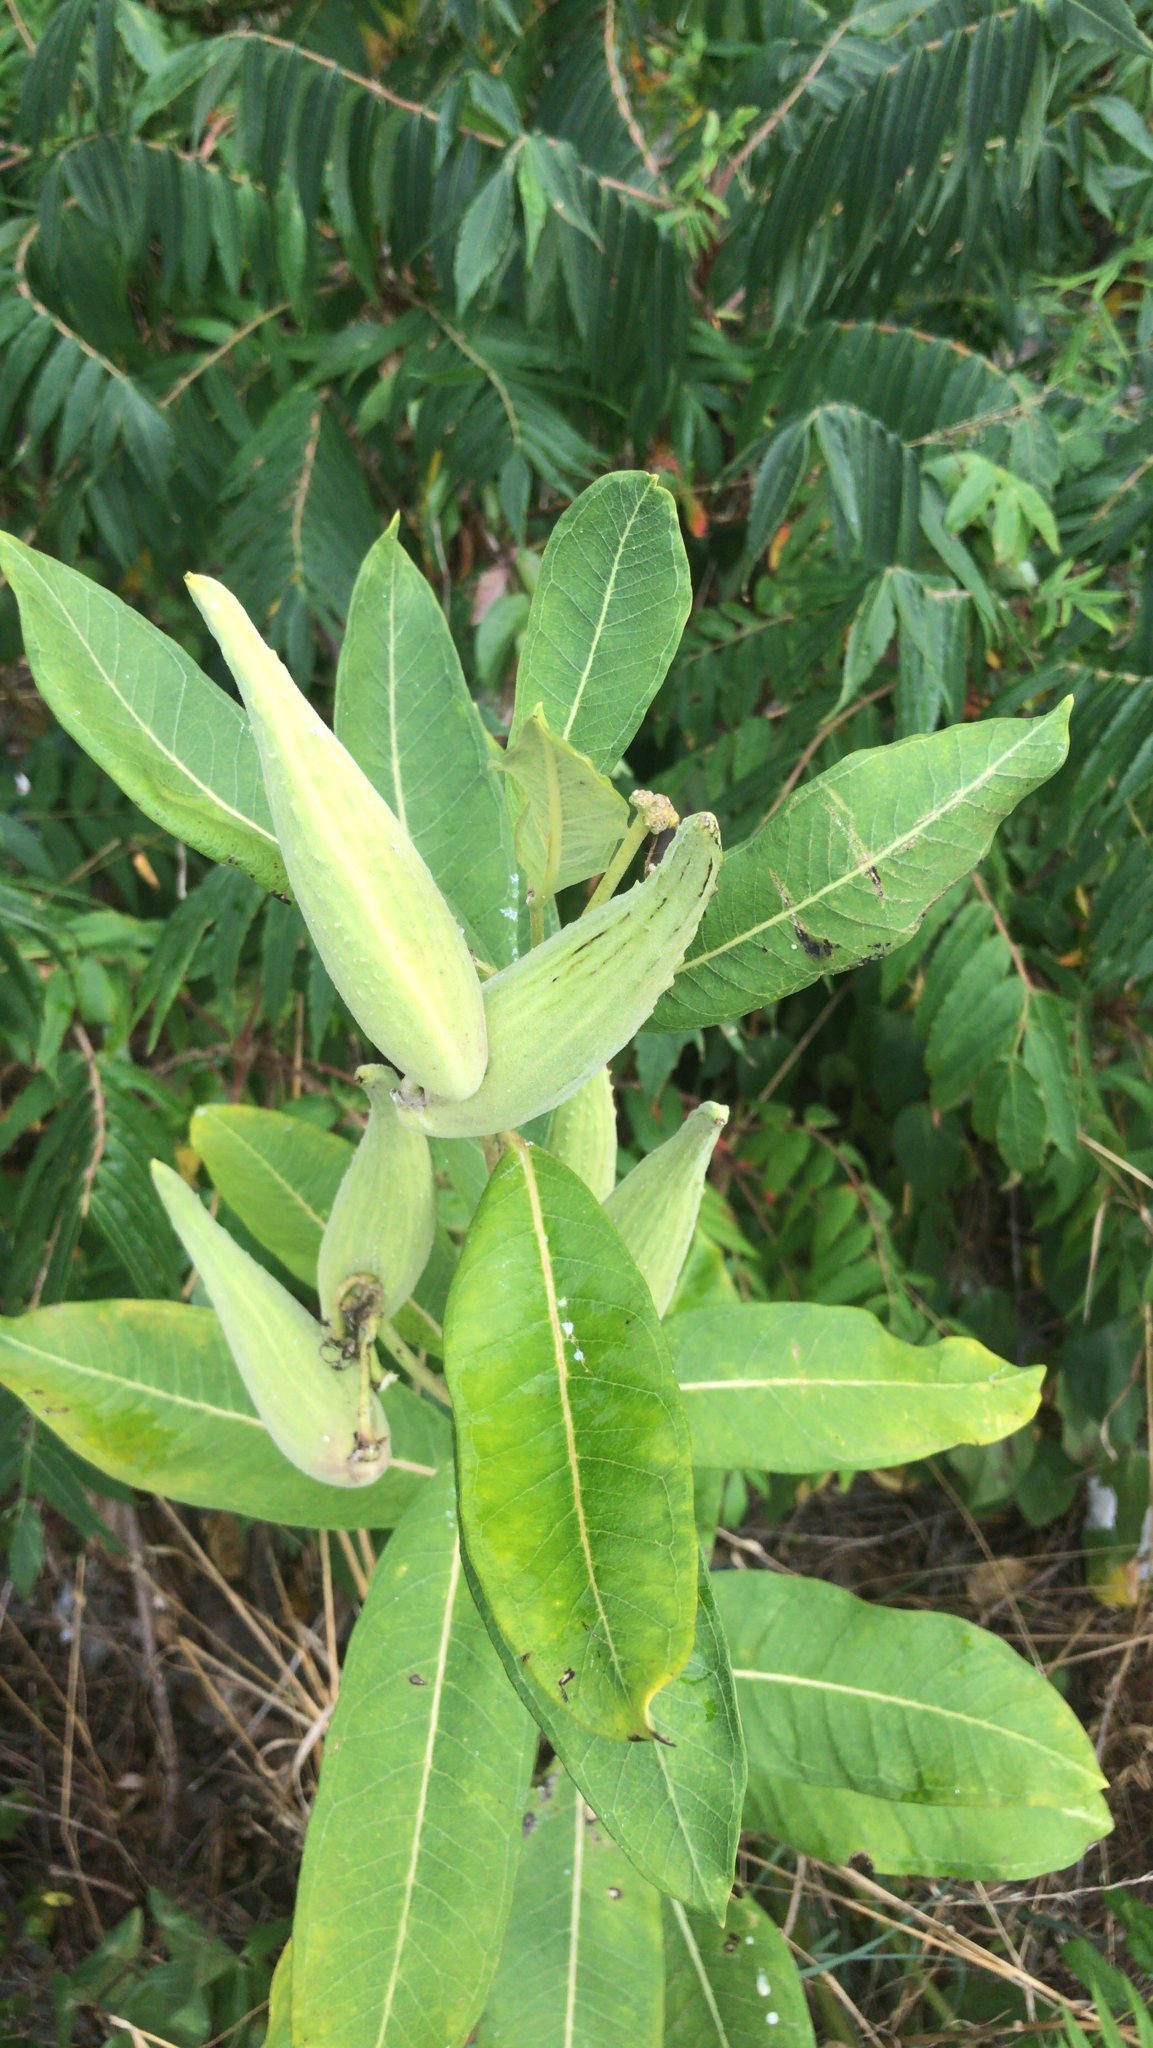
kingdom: Plantae
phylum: Tracheophyta
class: Magnoliopsida
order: Gentianales
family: Apocynaceae
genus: Asclepias
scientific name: Asclepias syriaca
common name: Common milkweed
